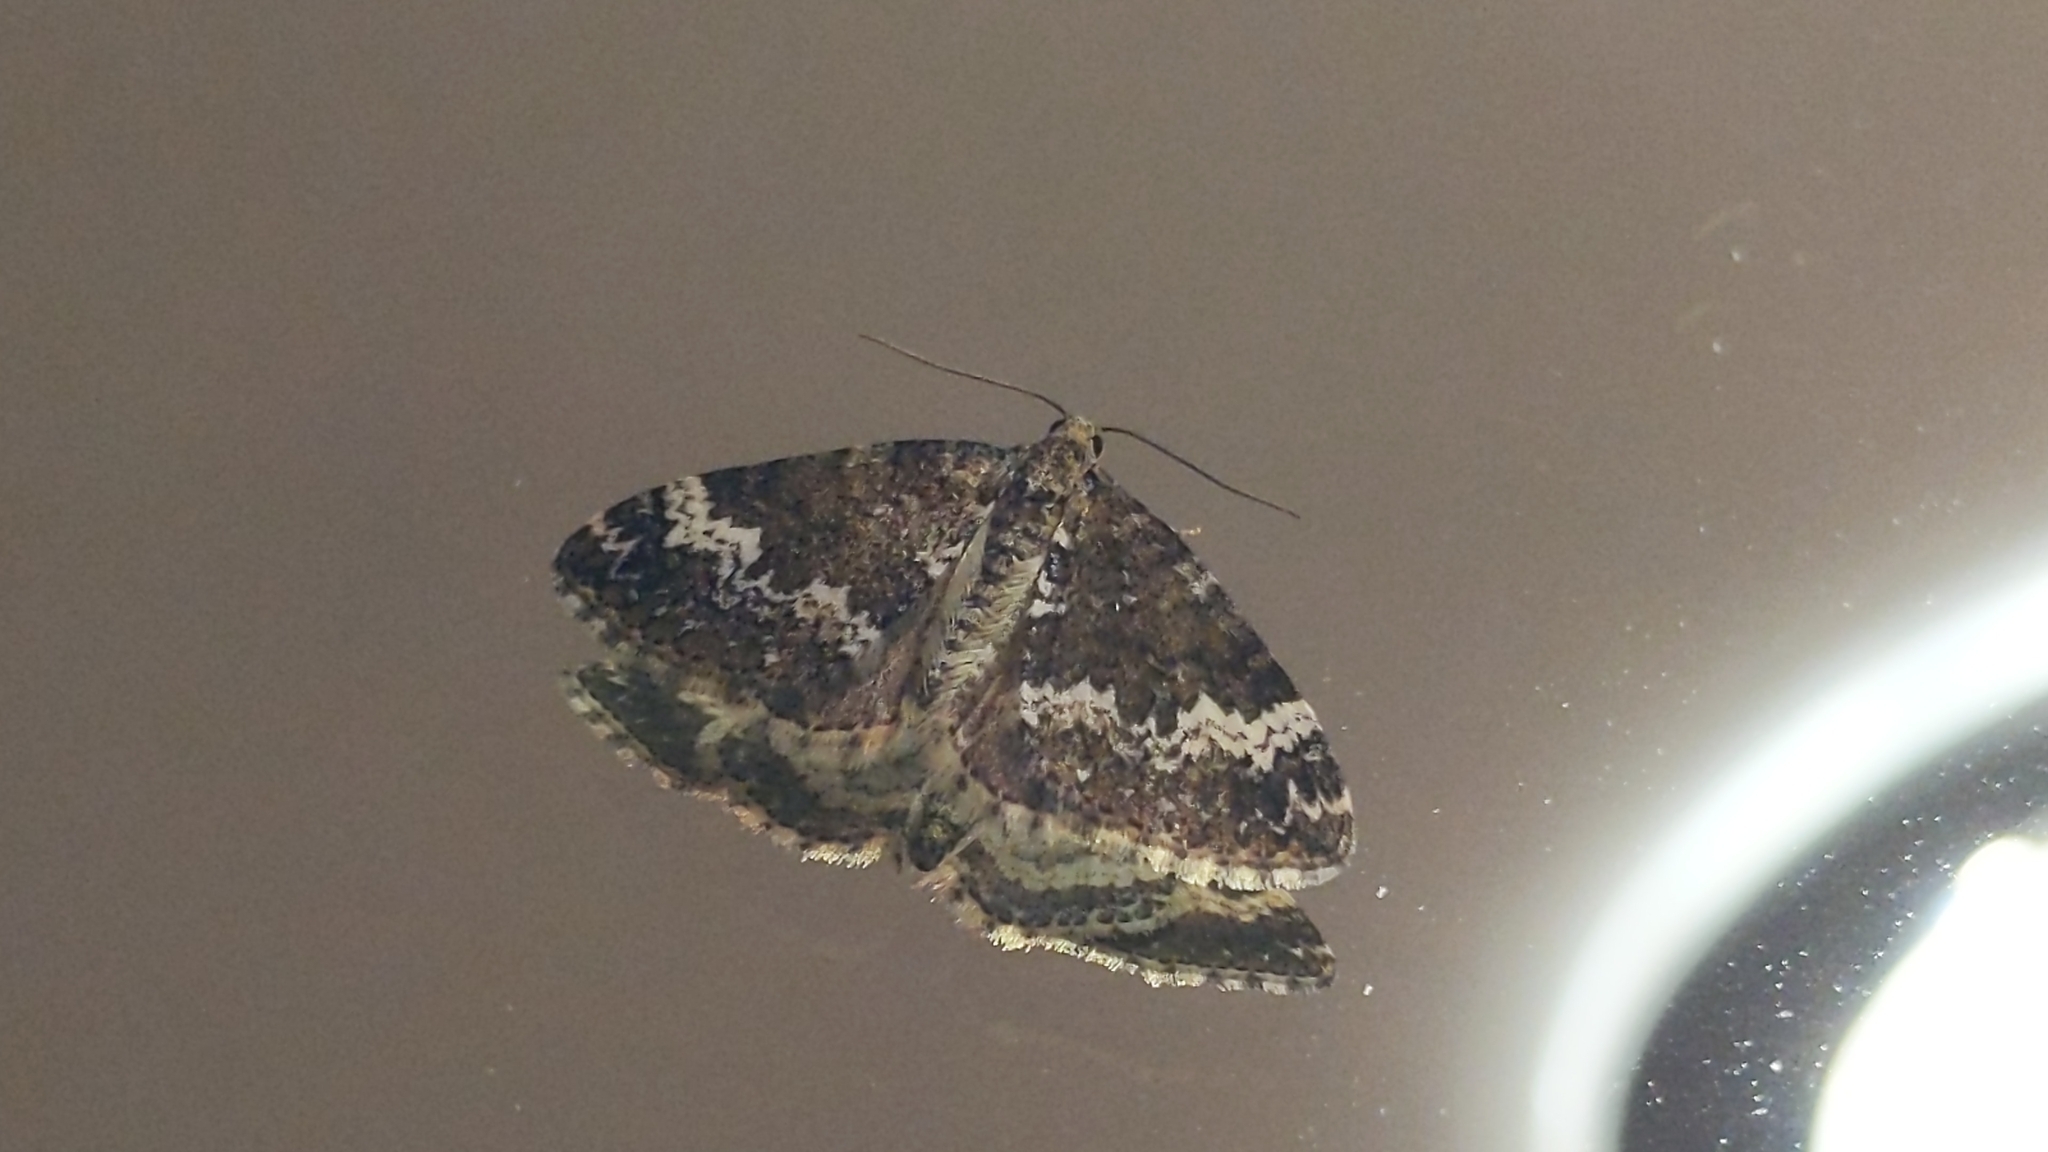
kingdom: Animalia
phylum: Arthropoda
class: Insecta
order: Lepidoptera
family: Geometridae
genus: Perizoma
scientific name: Perizoma alchemillata
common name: Small rivulet
